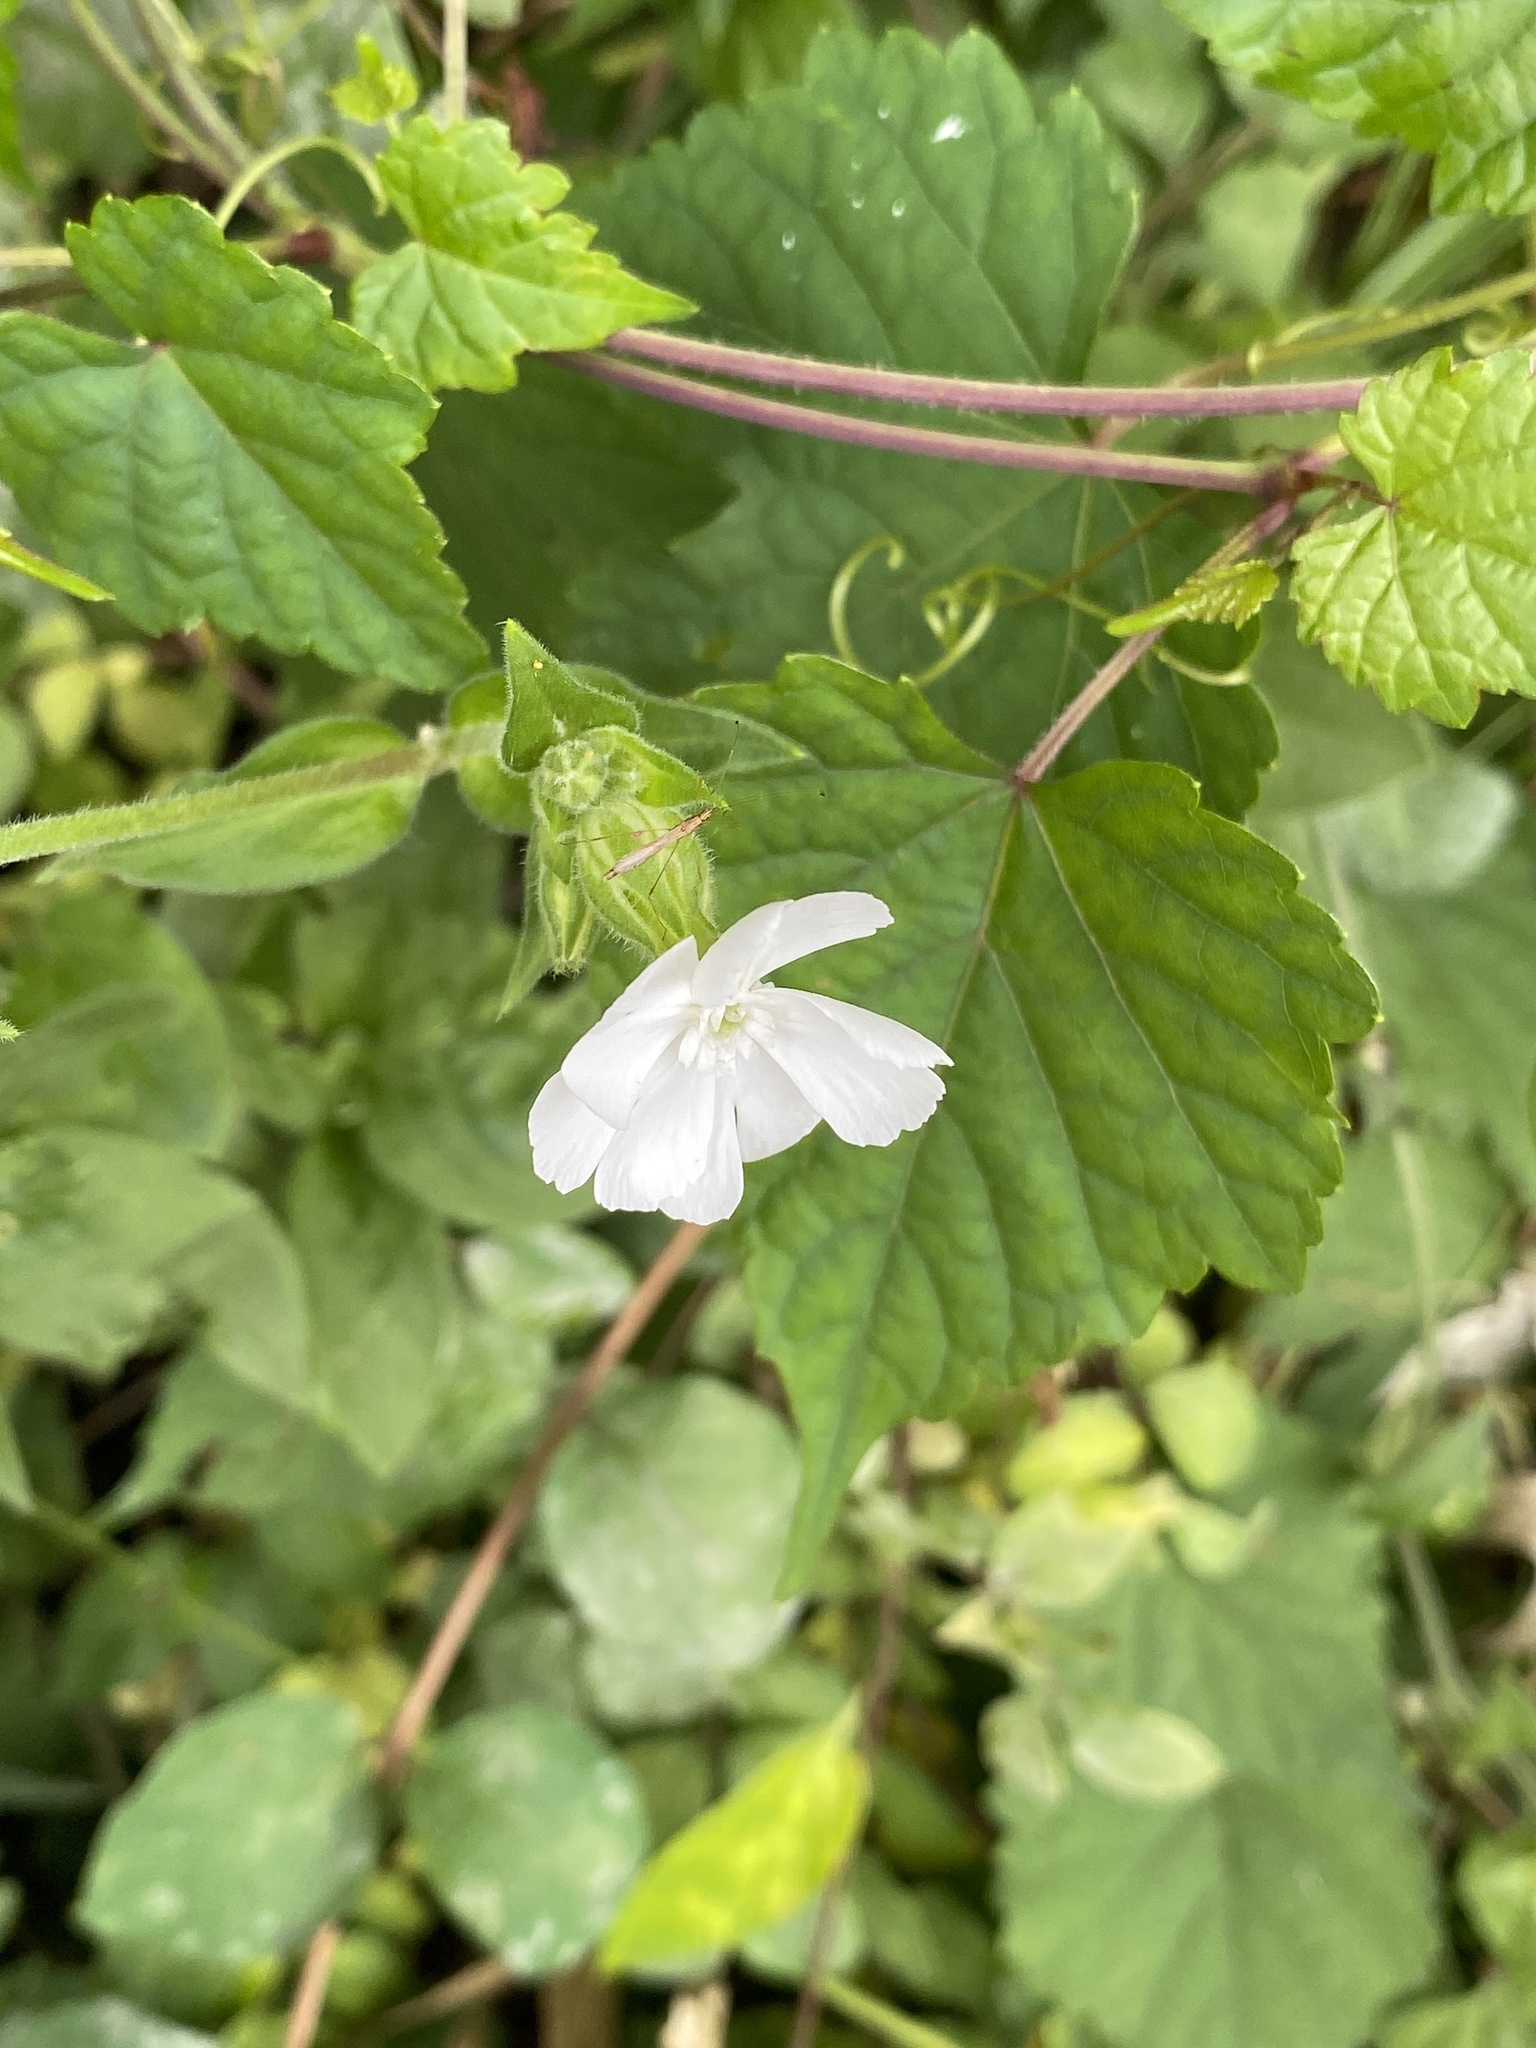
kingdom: Plantae
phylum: Tracheophyta
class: Magnoliopsida
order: Caryophyllales
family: Caryophyllaceae
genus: Silene
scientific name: Silene latifolia
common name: White campion
